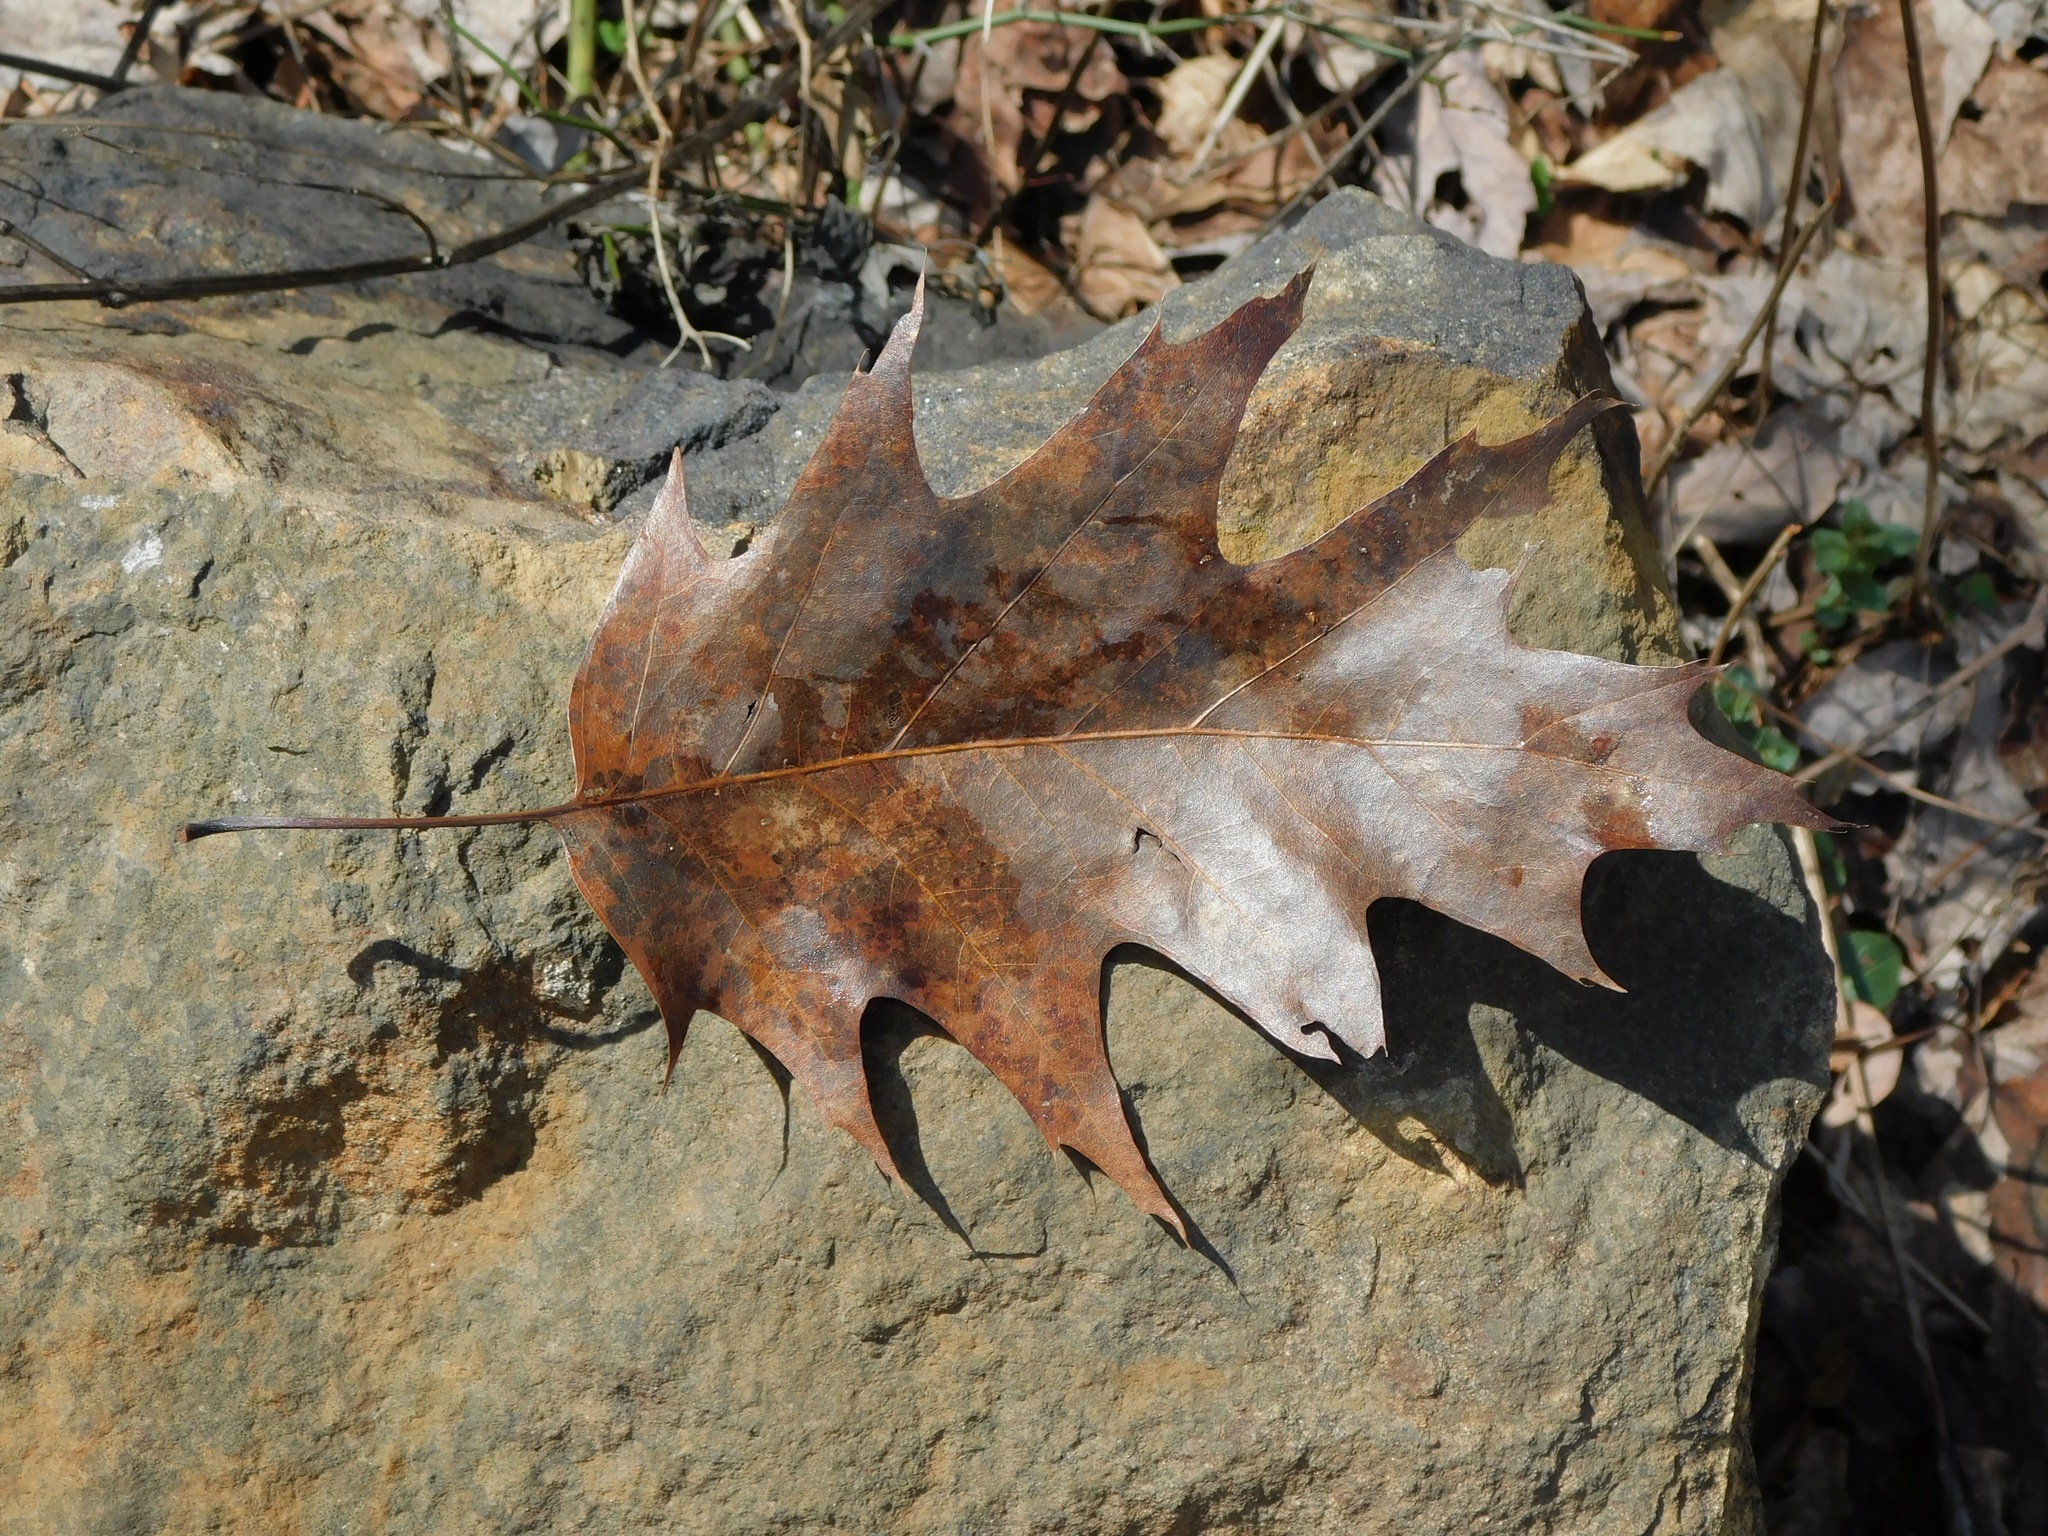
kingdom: Plantae
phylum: Tracheophyta
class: Magnoliopsida
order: Fagales
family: Fagaceae
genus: Quercus
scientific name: Quercus rubra
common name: Red oak
